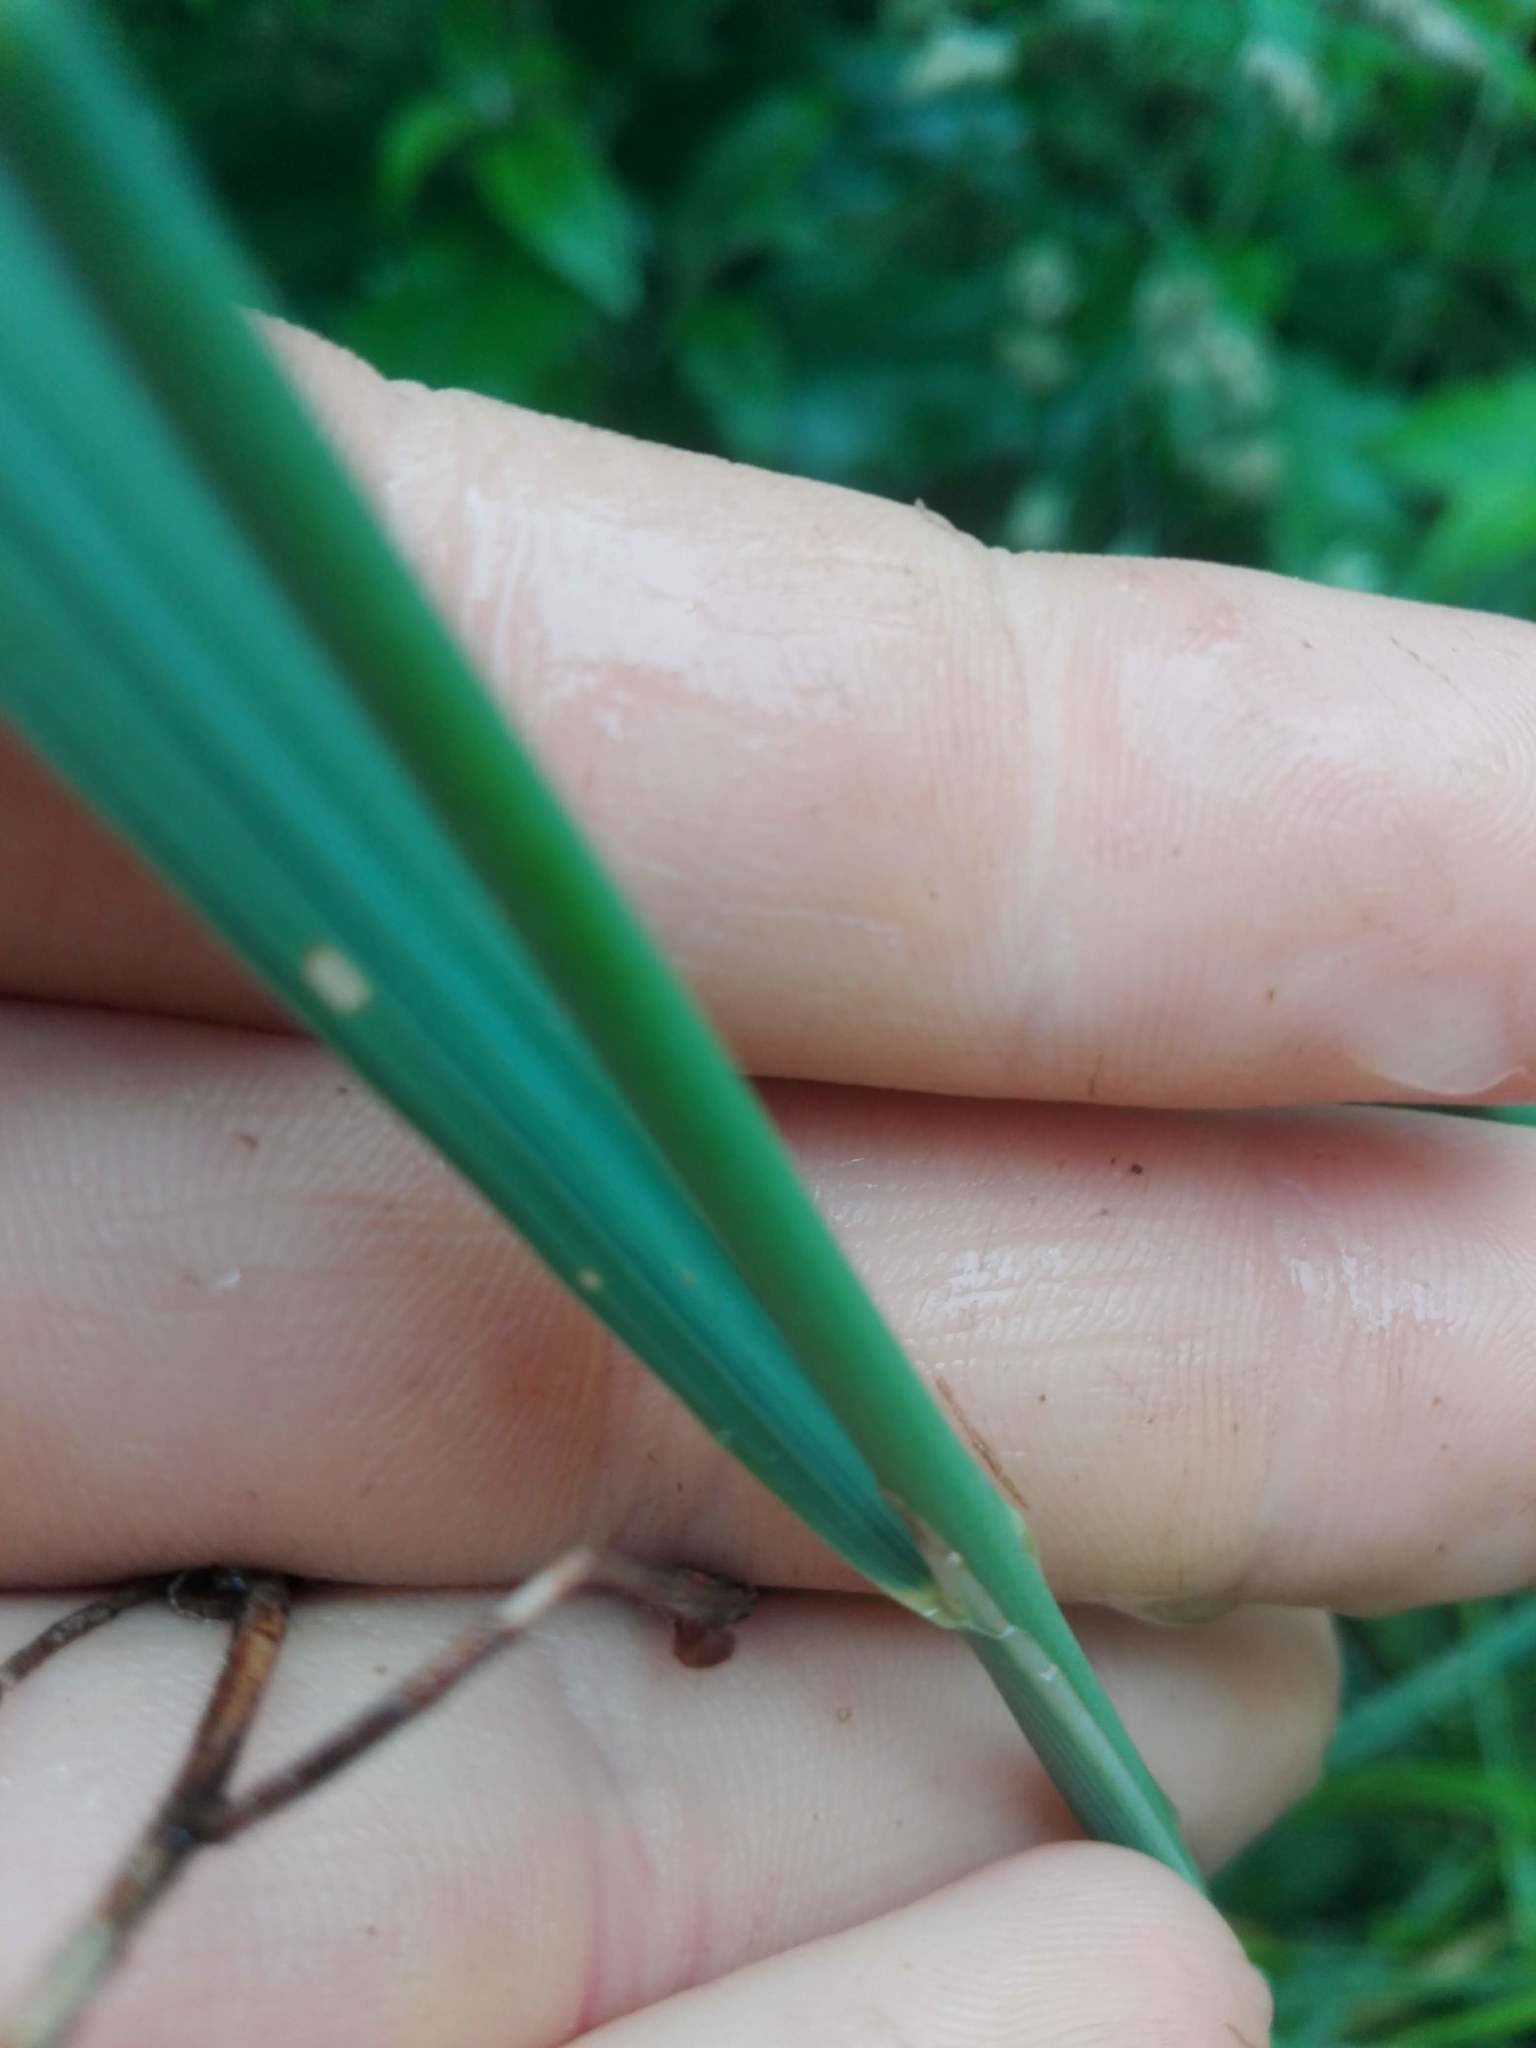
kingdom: Plantae
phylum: Tracheophyta
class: Liliopsida
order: Poales
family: Poaceae
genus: Calamagrostis
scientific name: Calamagrostis epigejos
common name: Wood small-reed
